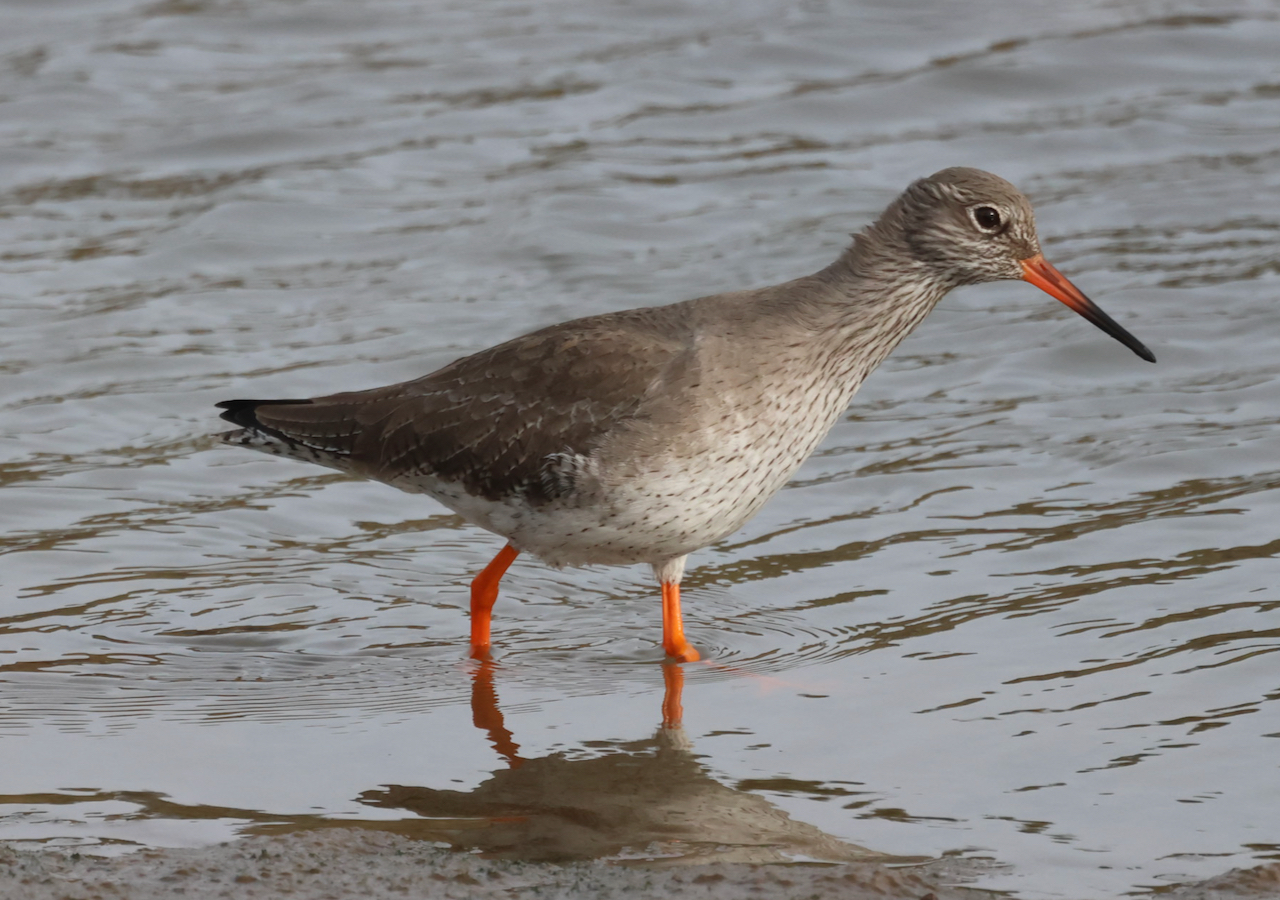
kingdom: Animalia
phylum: Chordata
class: Aves
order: Charadriiformes
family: Scolopacidae
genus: Tringa
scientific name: Tringa totanus
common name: Common redshank
